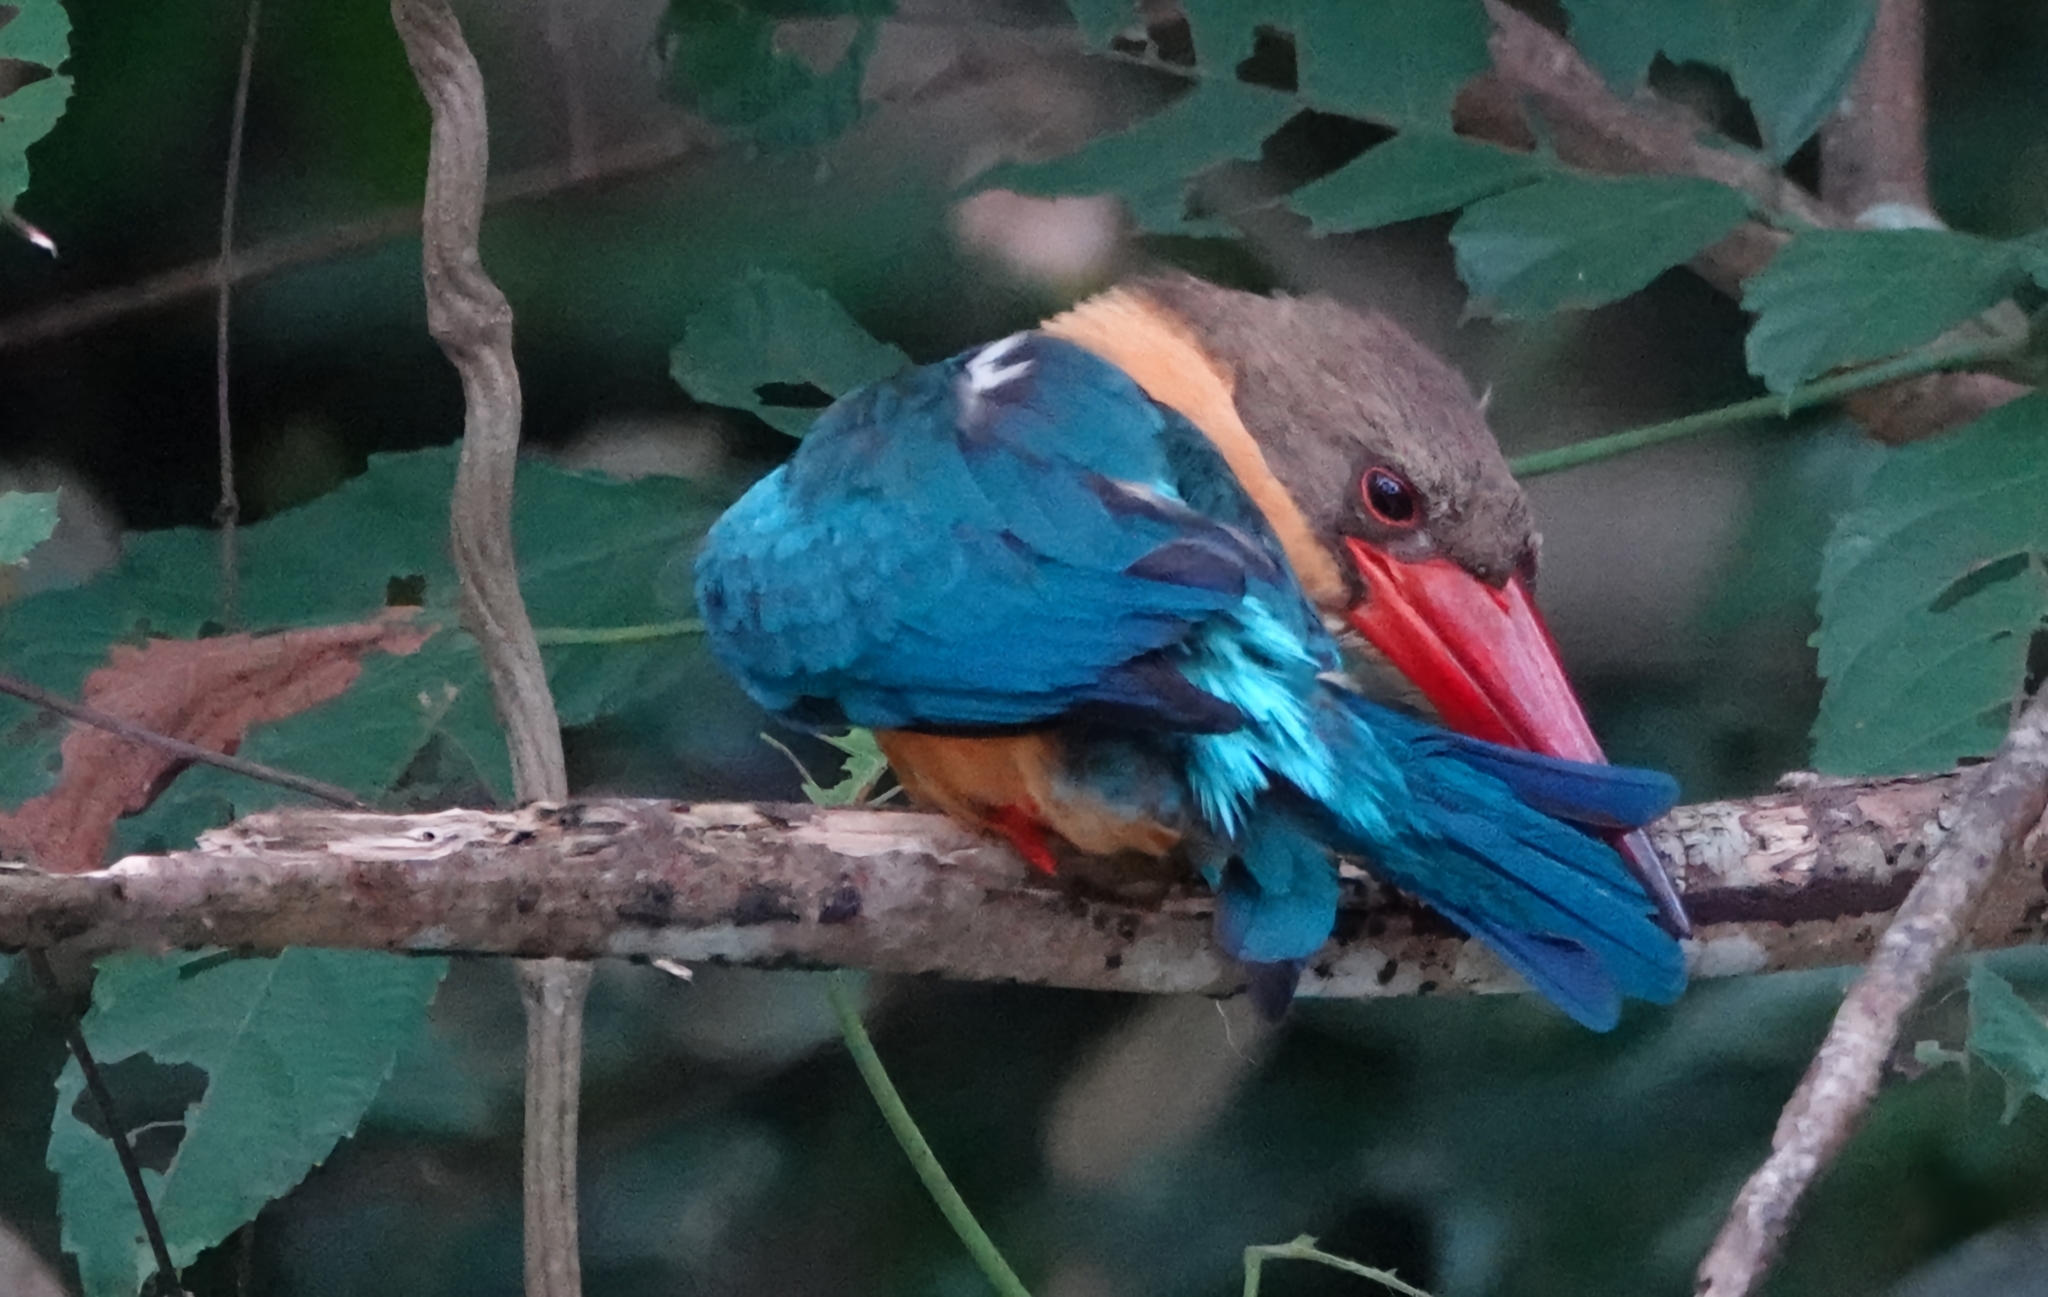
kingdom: Animalia
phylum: Chordata
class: Aves
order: Coraciiformes
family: Alcedinidae
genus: Pelargopsis
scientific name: Pelargopsis capensis
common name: Stork-billed kingfisher
